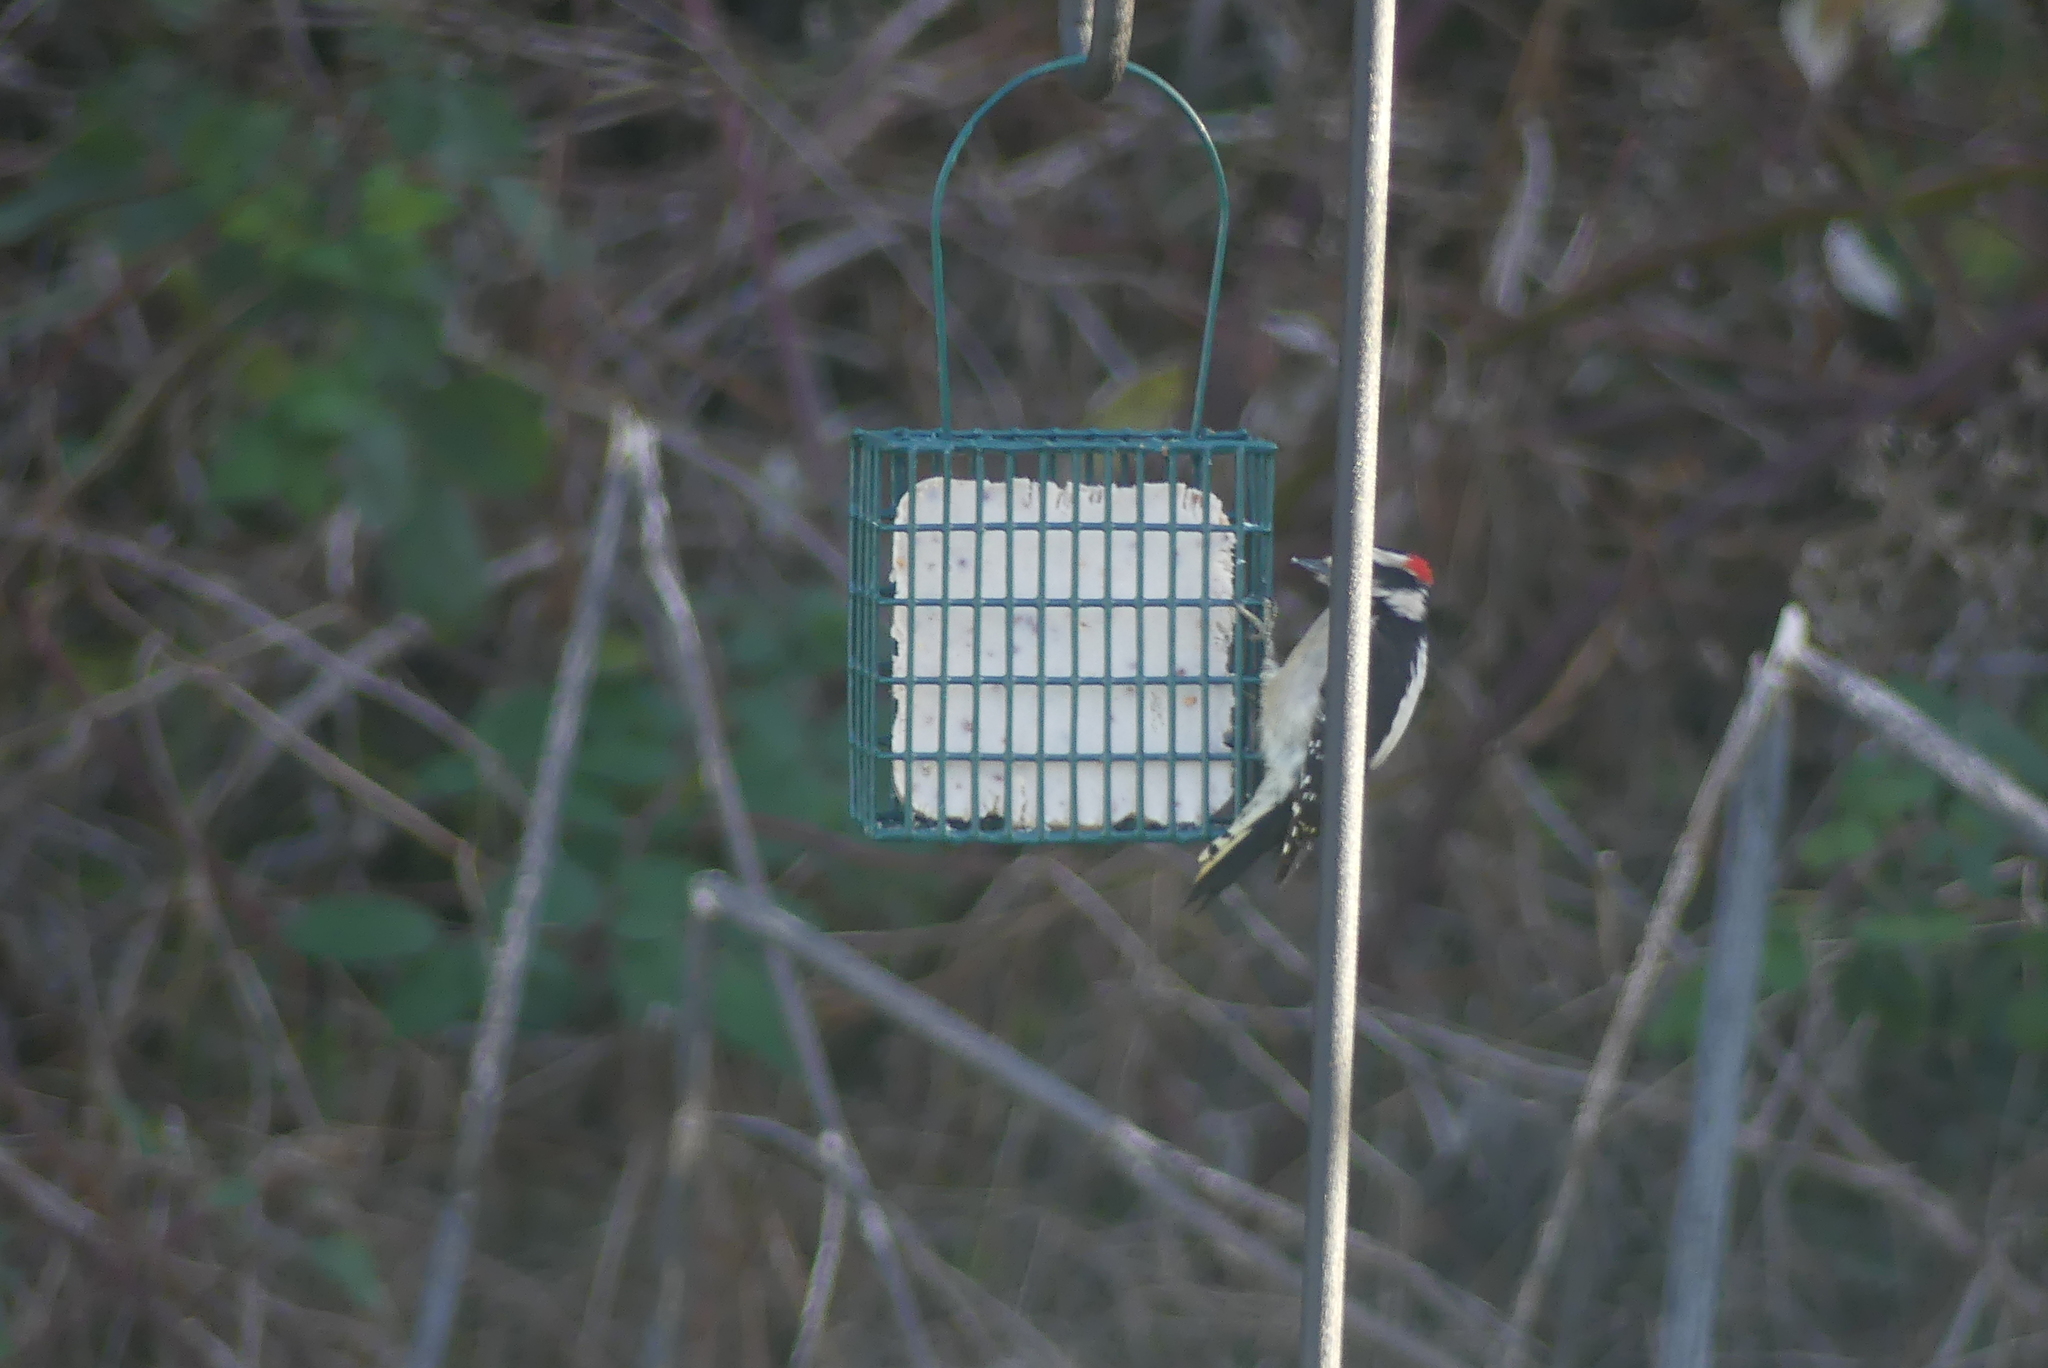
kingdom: Animalia
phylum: Chordata
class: Aves
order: Piciformes
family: Picidae
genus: Dryobates
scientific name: Dryobates pubescens
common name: Downy woodpecker
